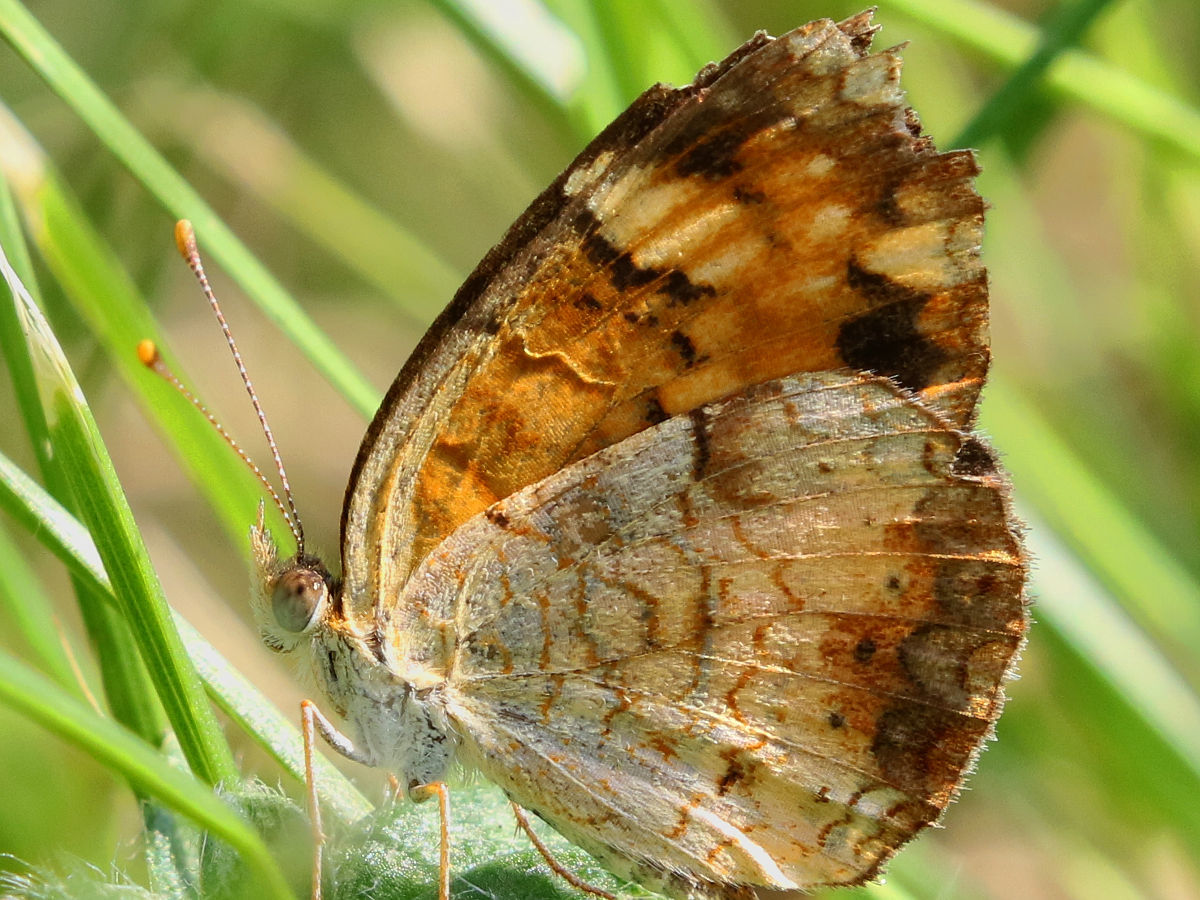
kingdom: Animalia
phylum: Arthropoda
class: Insecta
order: Lepidoptera
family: Nymphalidae
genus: Phyciodes
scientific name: Phyciodes tharos
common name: Pearl crescent
